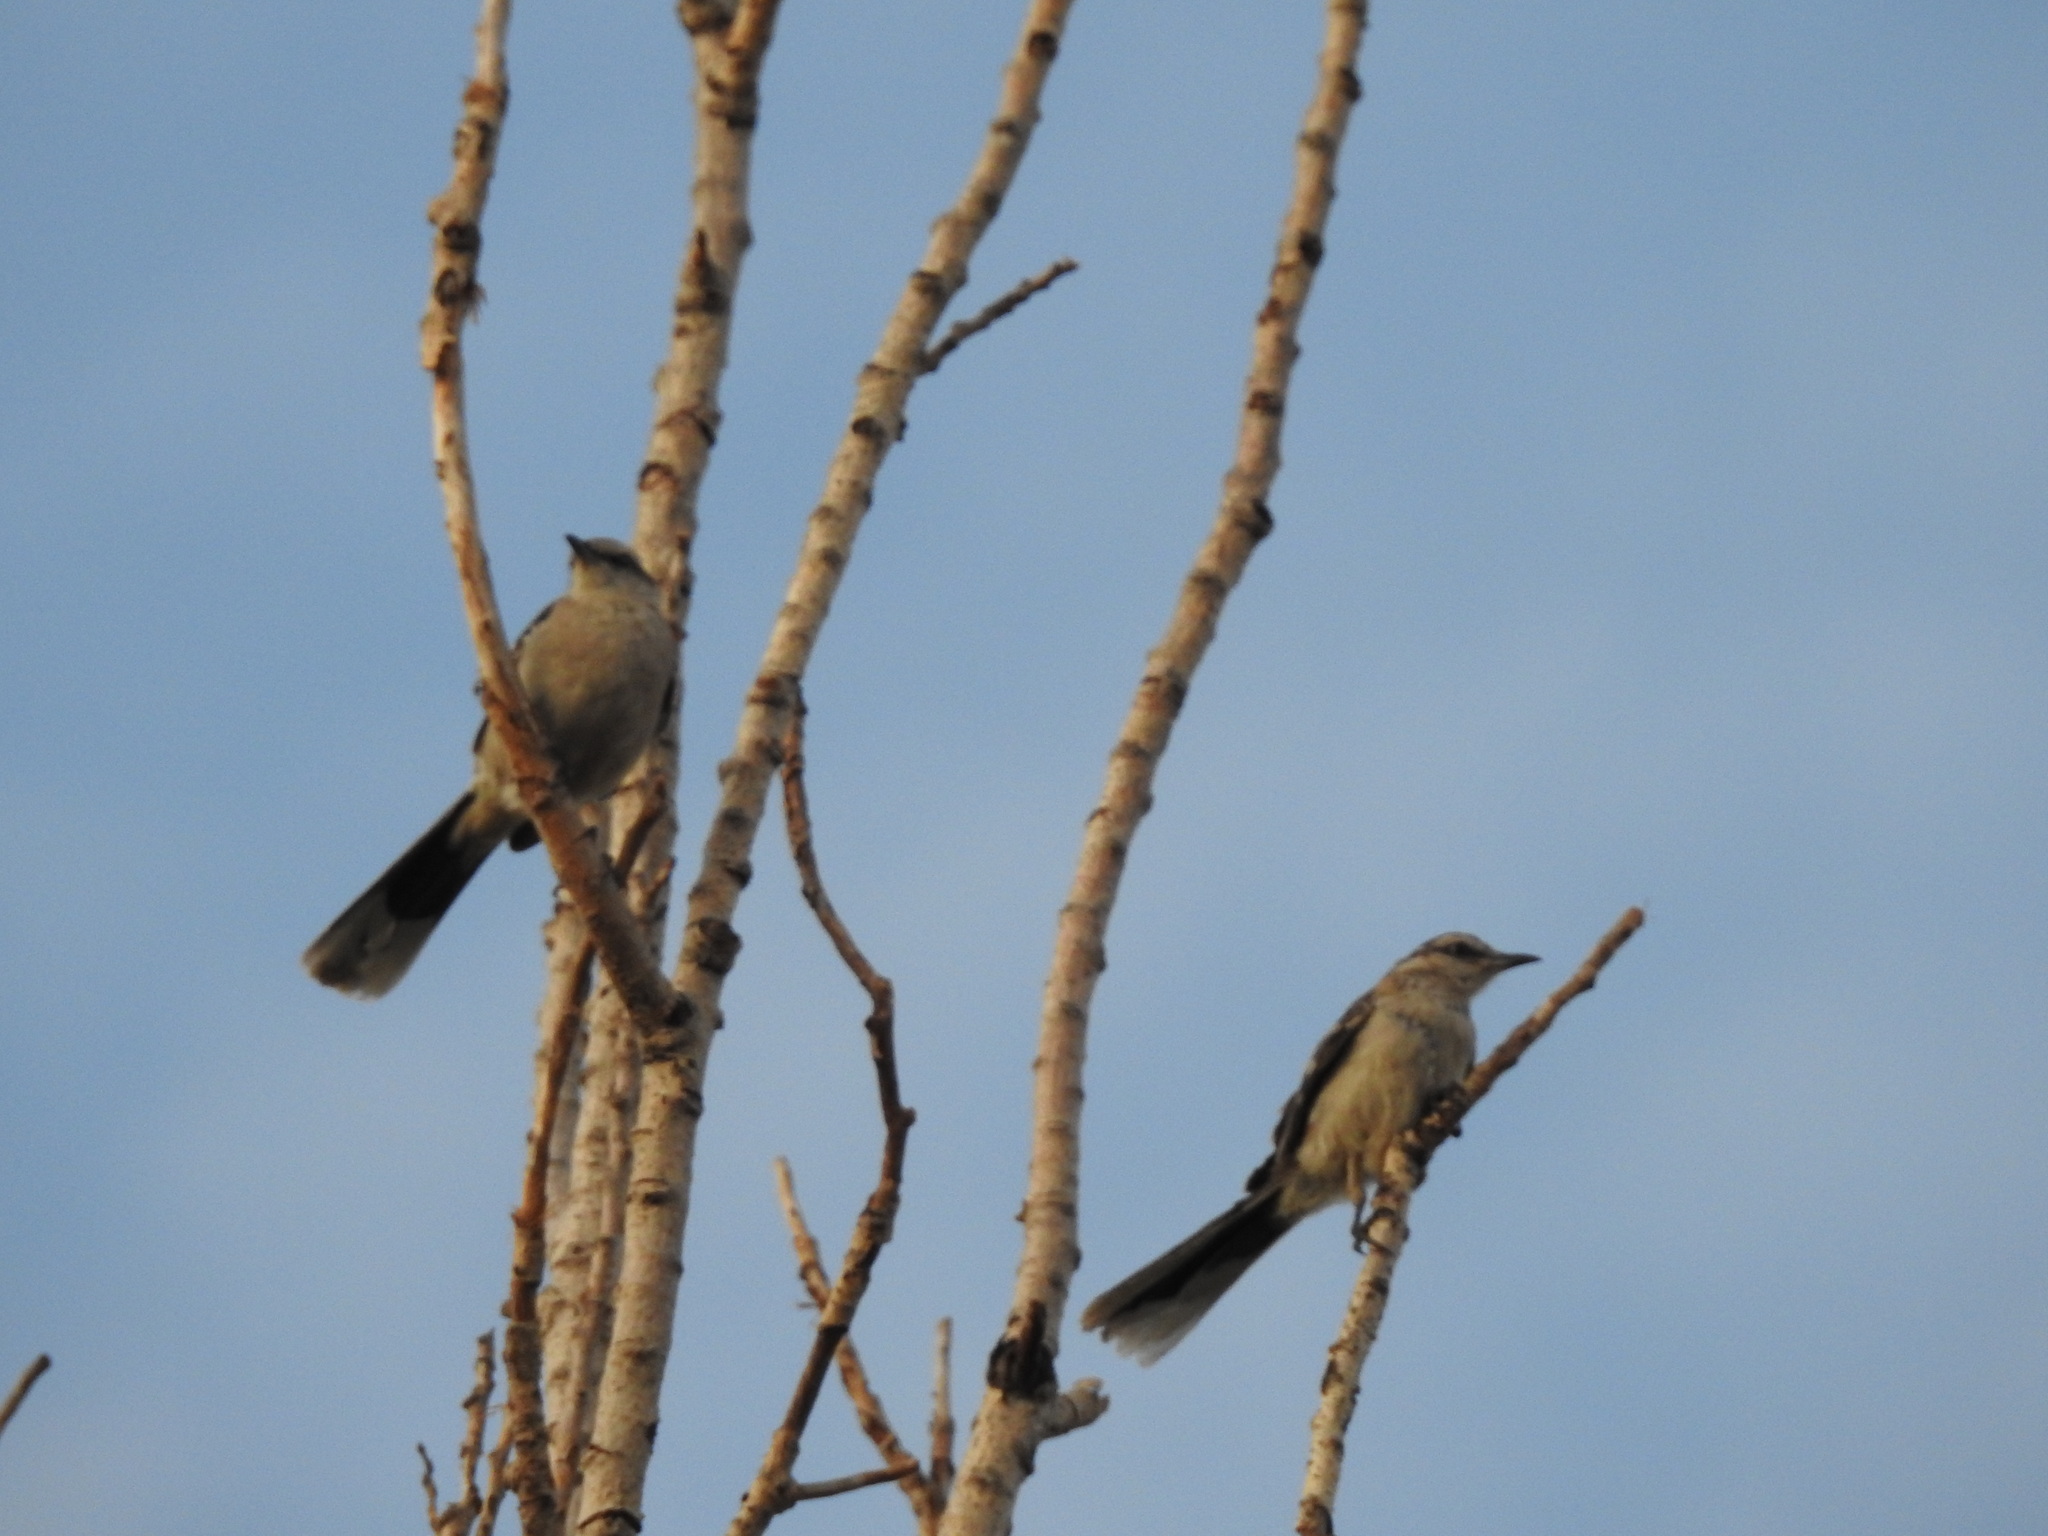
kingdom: Animalia
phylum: Chordata
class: Aves
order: Passeriformes
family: Mimidae
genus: Mimus
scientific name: Mimus saturninus
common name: Chalk-browed mockingbird
